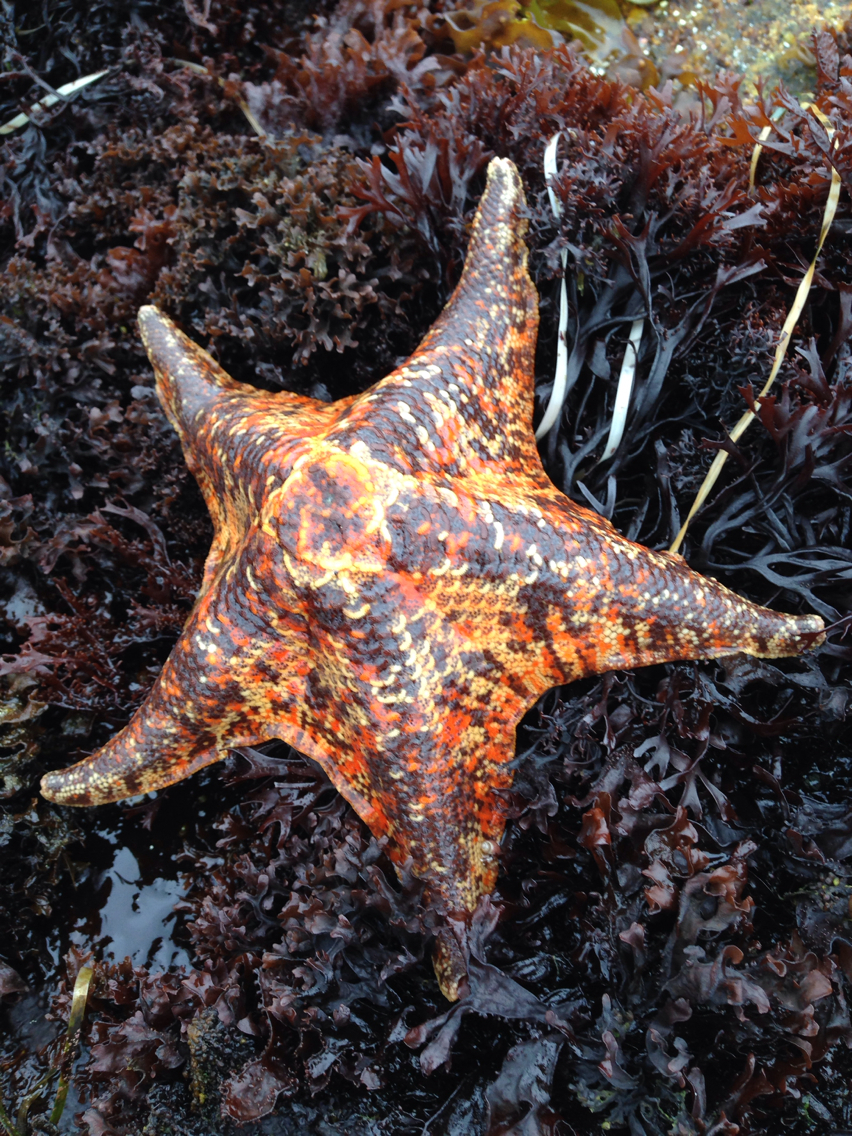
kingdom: Animalia
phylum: Echinodermata
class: Asteroidea
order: Valvatida
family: Asterinidae
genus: Patiria
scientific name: Patiria miniata
